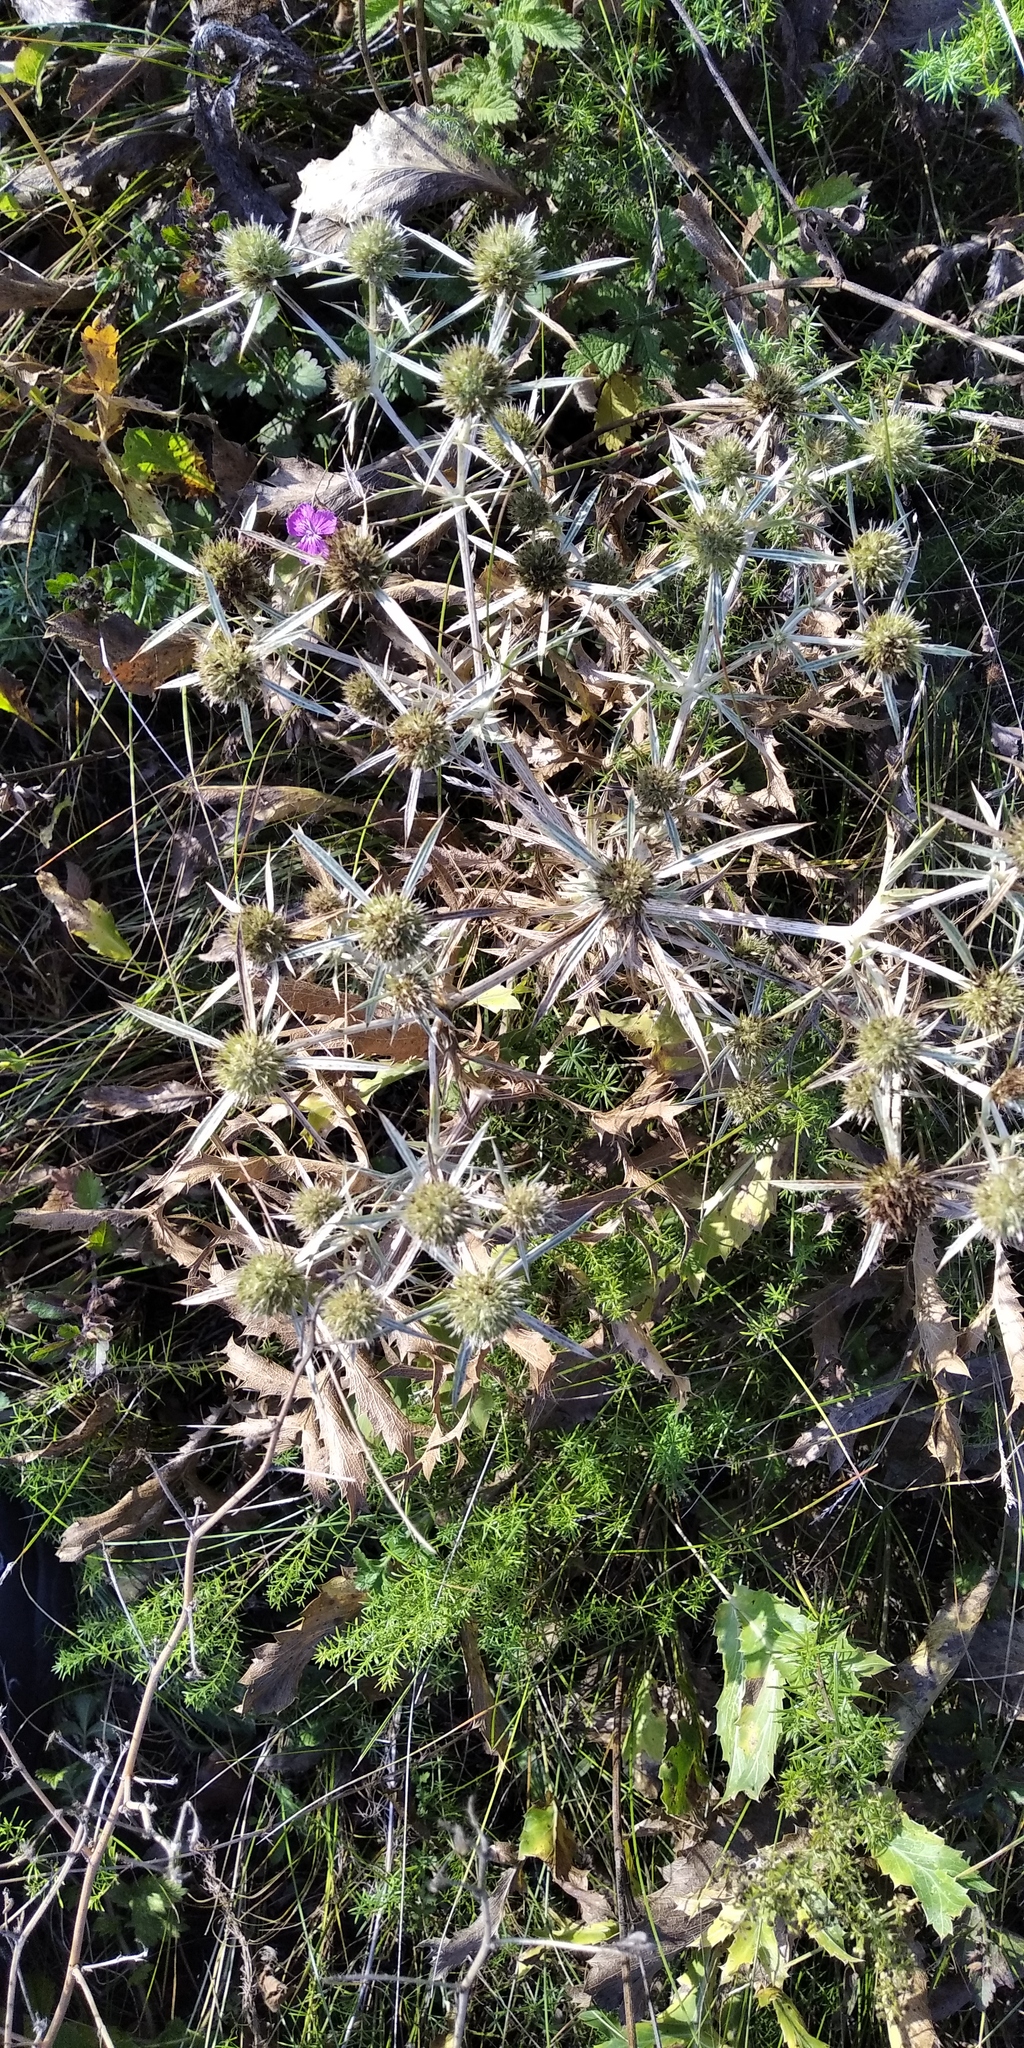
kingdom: Plantae
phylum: Tracheophyta
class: Magnoliopsida
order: Apiales
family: Apiaceae
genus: Eryngium
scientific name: Eryngium campestre
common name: Field eryngo
